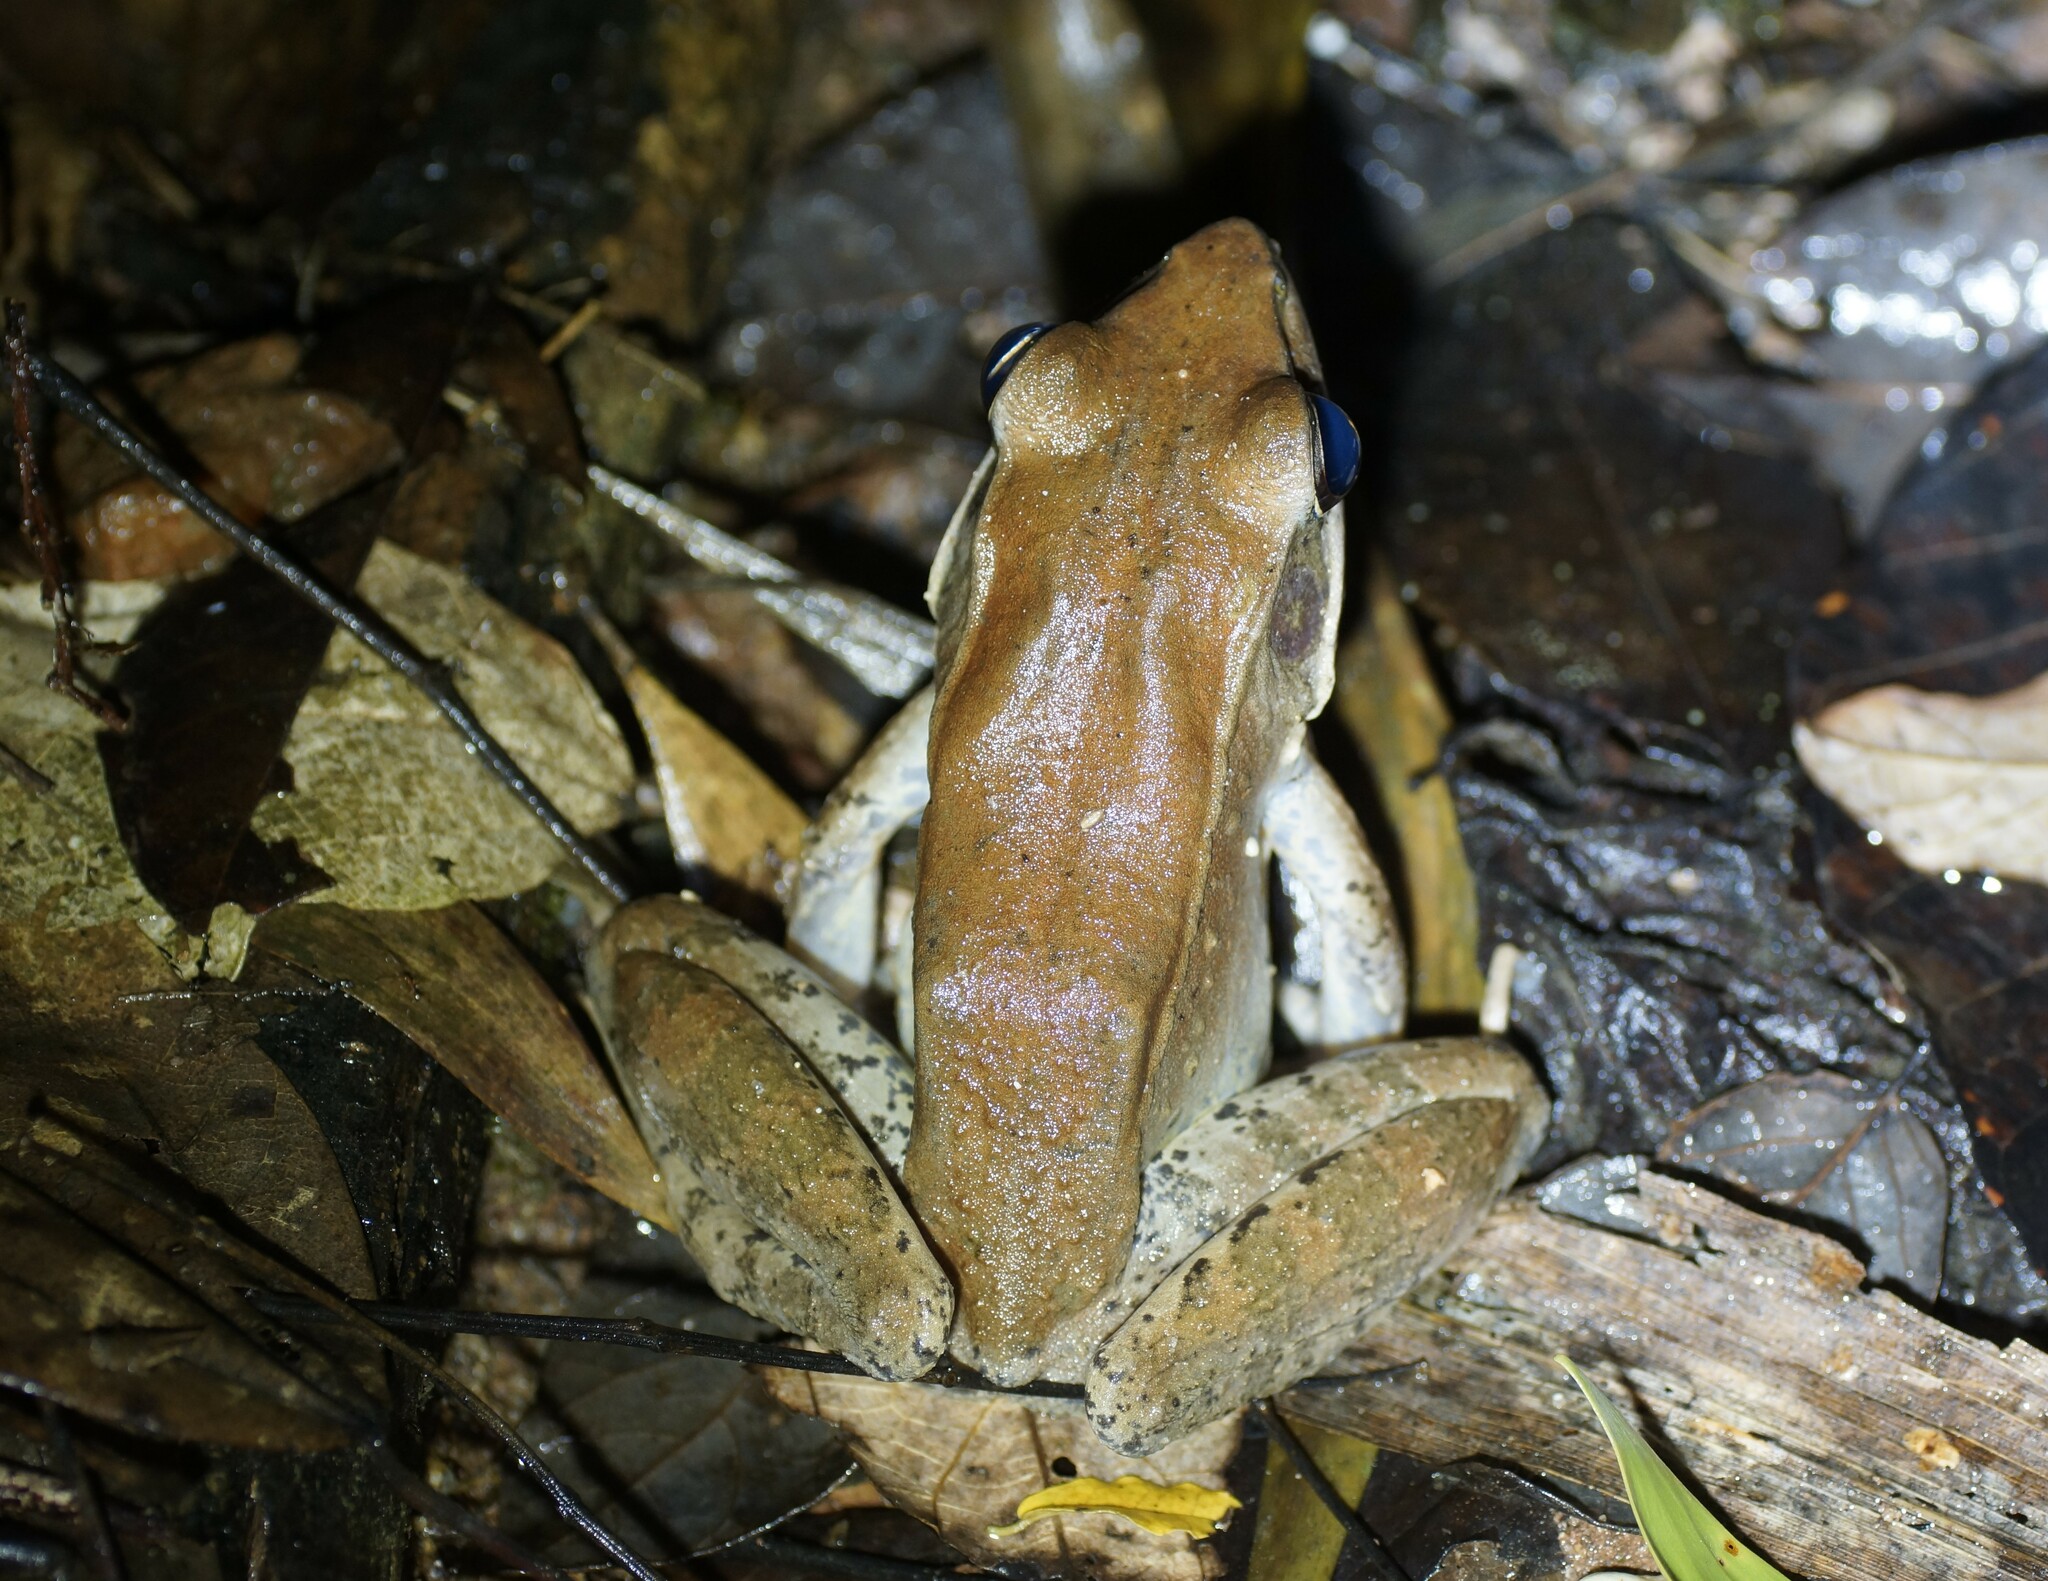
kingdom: Animalia
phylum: Chordata
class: Amphibia
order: Anura
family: Ranidae
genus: Papurana
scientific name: Papurana daemeli
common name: Arhem rana
